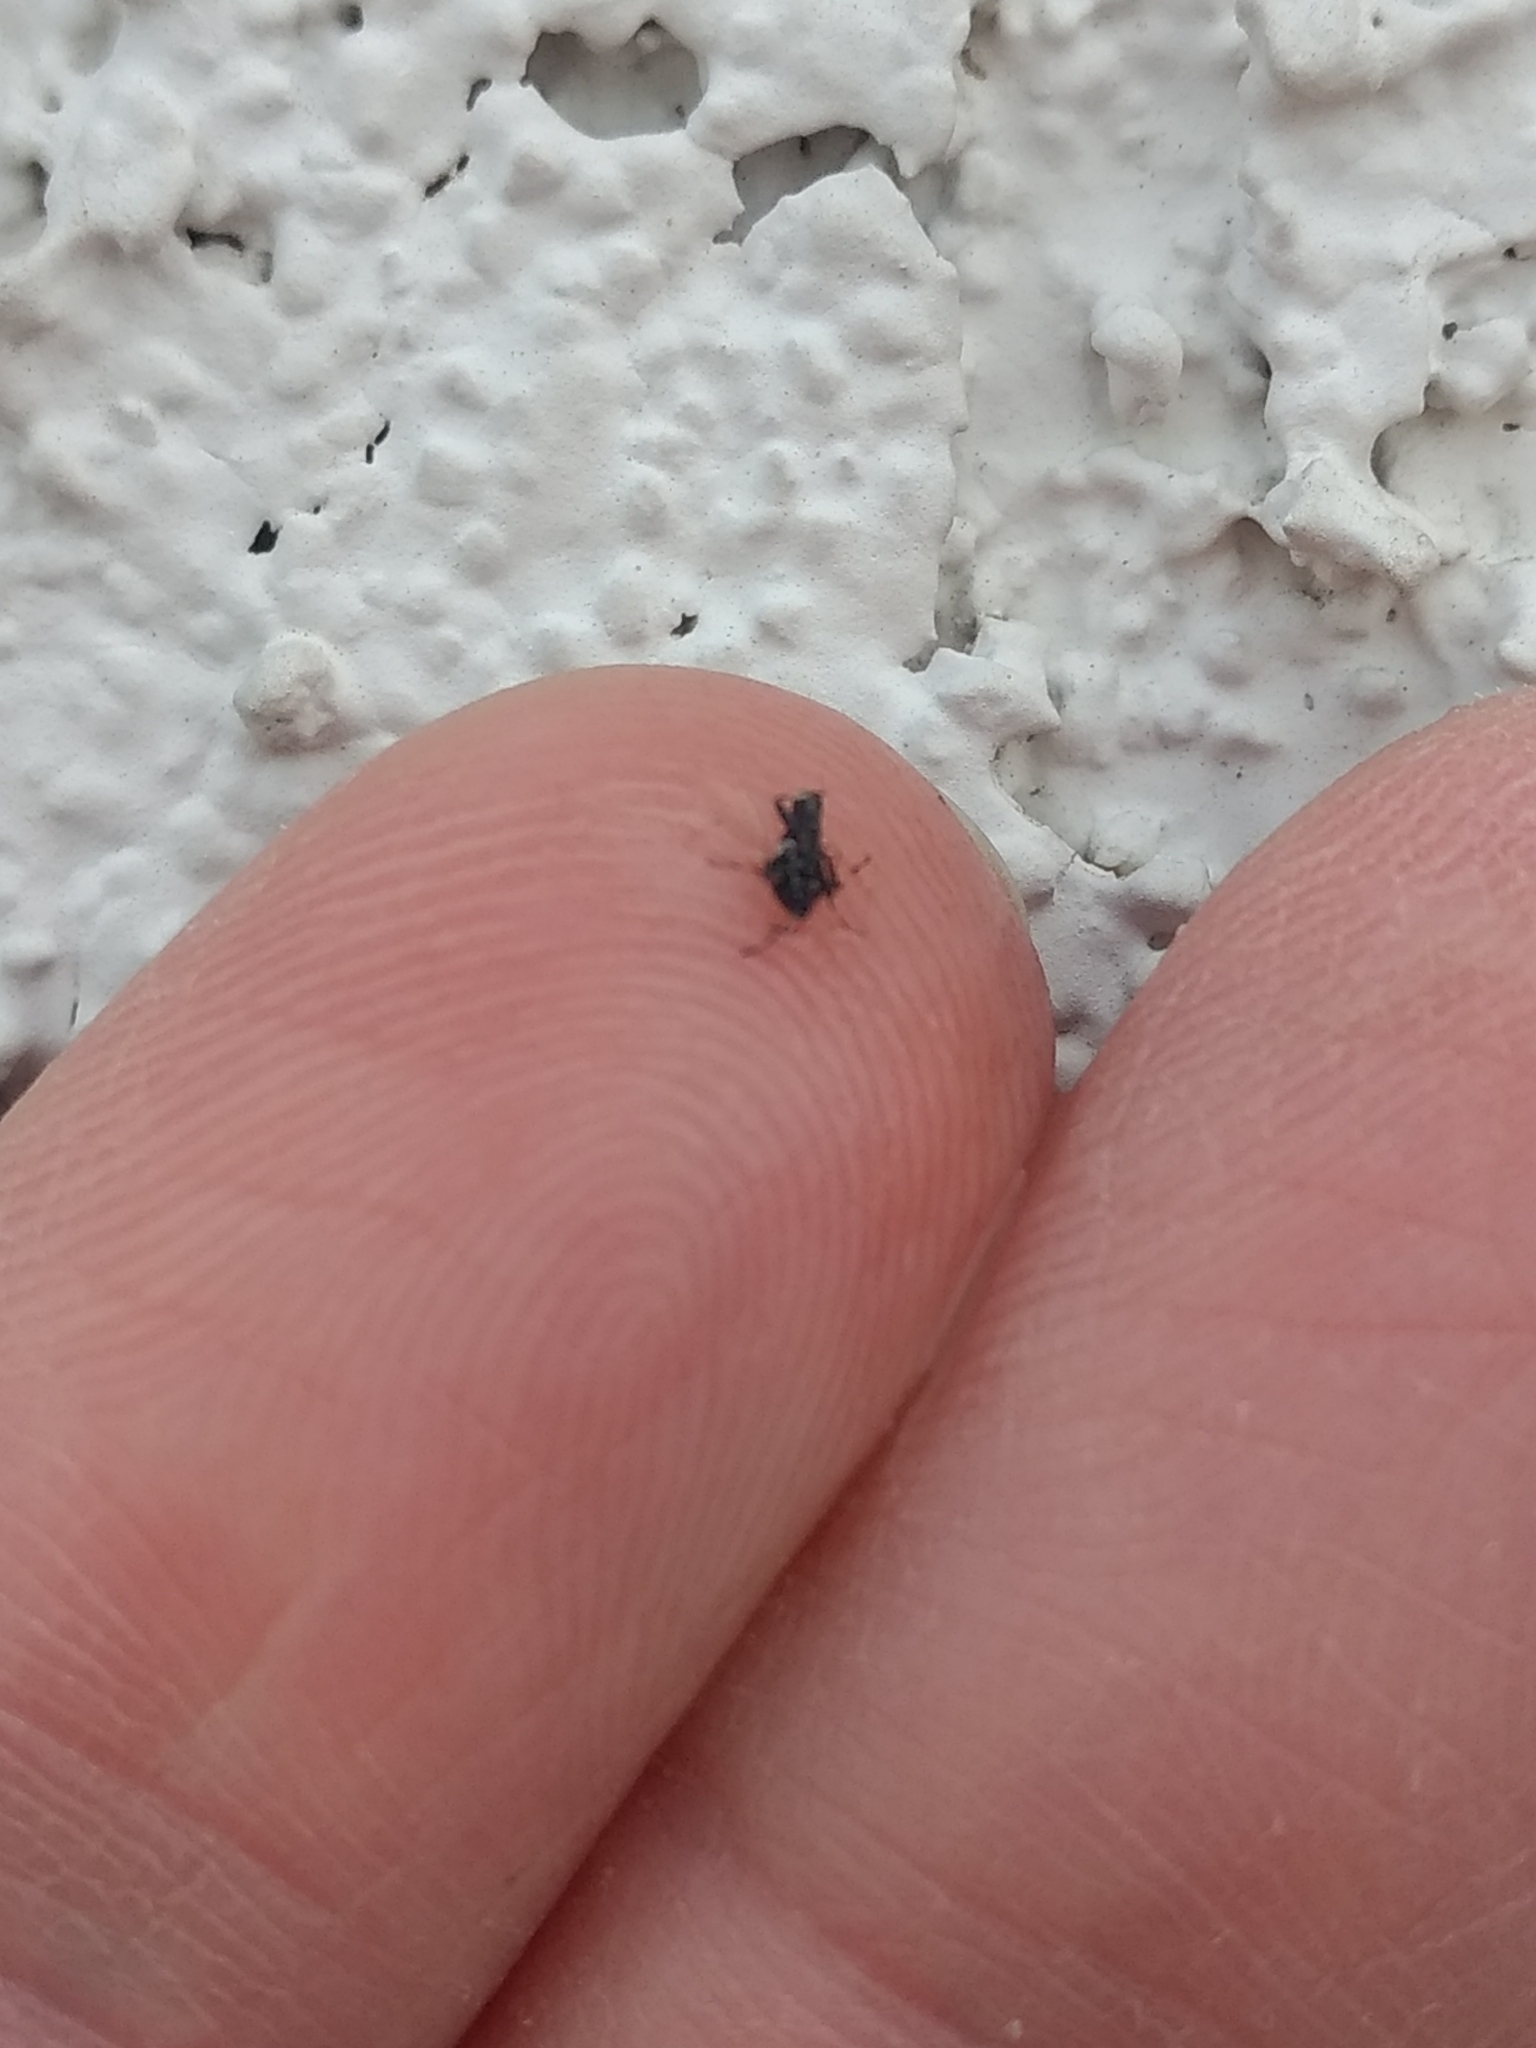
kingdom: Animalia
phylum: Arthropoda
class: Insecta
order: Hemiptera
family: Oxycarenidae
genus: Oxycarenus
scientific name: Oxycarenus hyalinipennis
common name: Cotton seed bug
